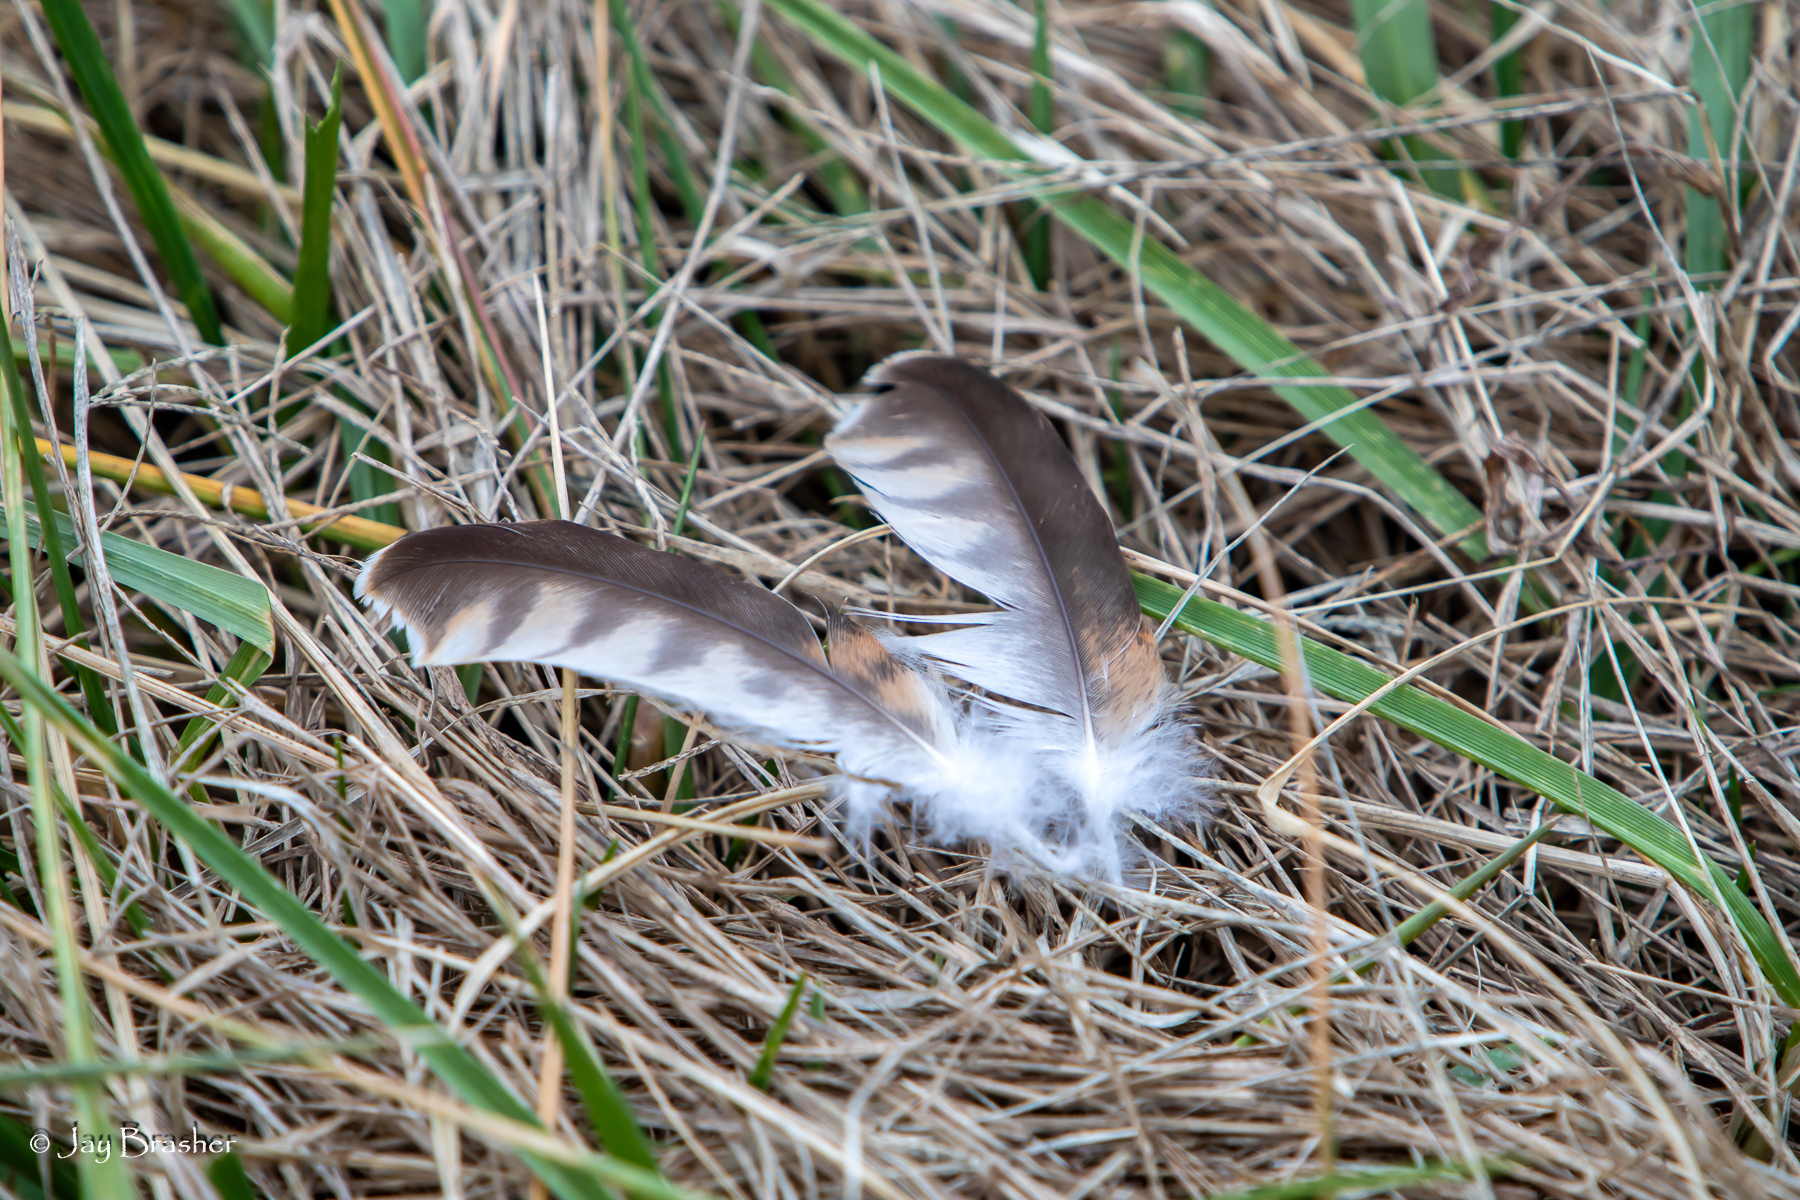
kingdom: Animalia
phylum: Chordata
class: Aves
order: Falconiformes
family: Falconidae
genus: Falco
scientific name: Falco sparverius
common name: American kestrel
